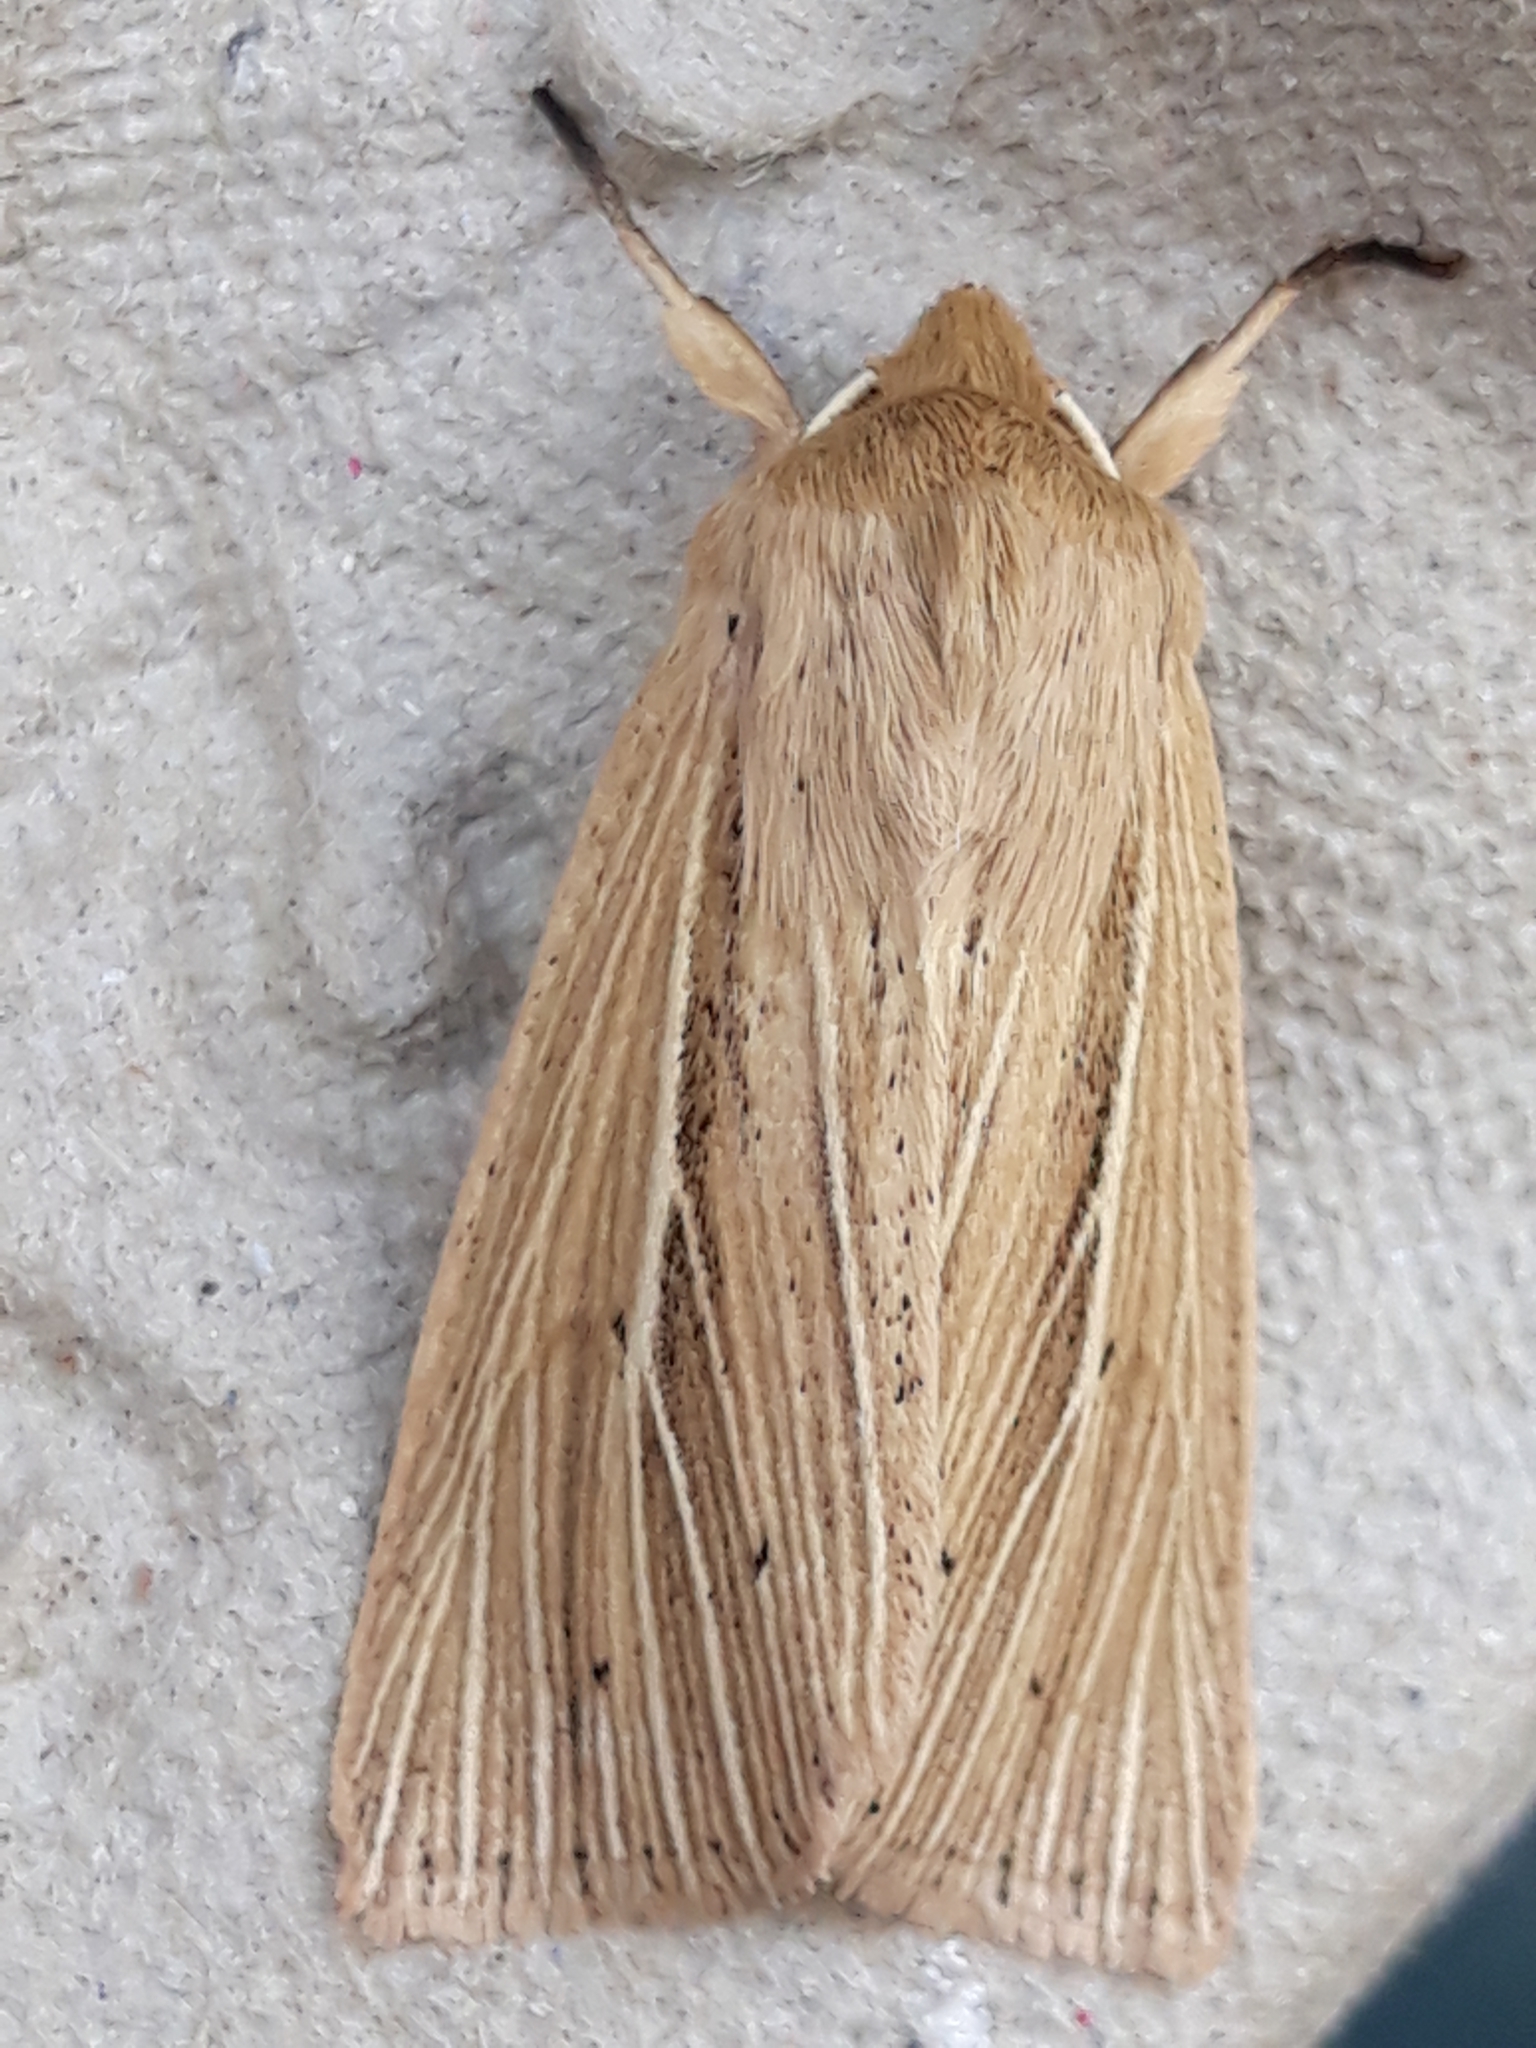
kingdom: Animalia
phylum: Arthropoda
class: Insecta
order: Lepidoptera
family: Noctuidae
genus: Mythimna
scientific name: Mythimna impura
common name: Smoky wainscot
